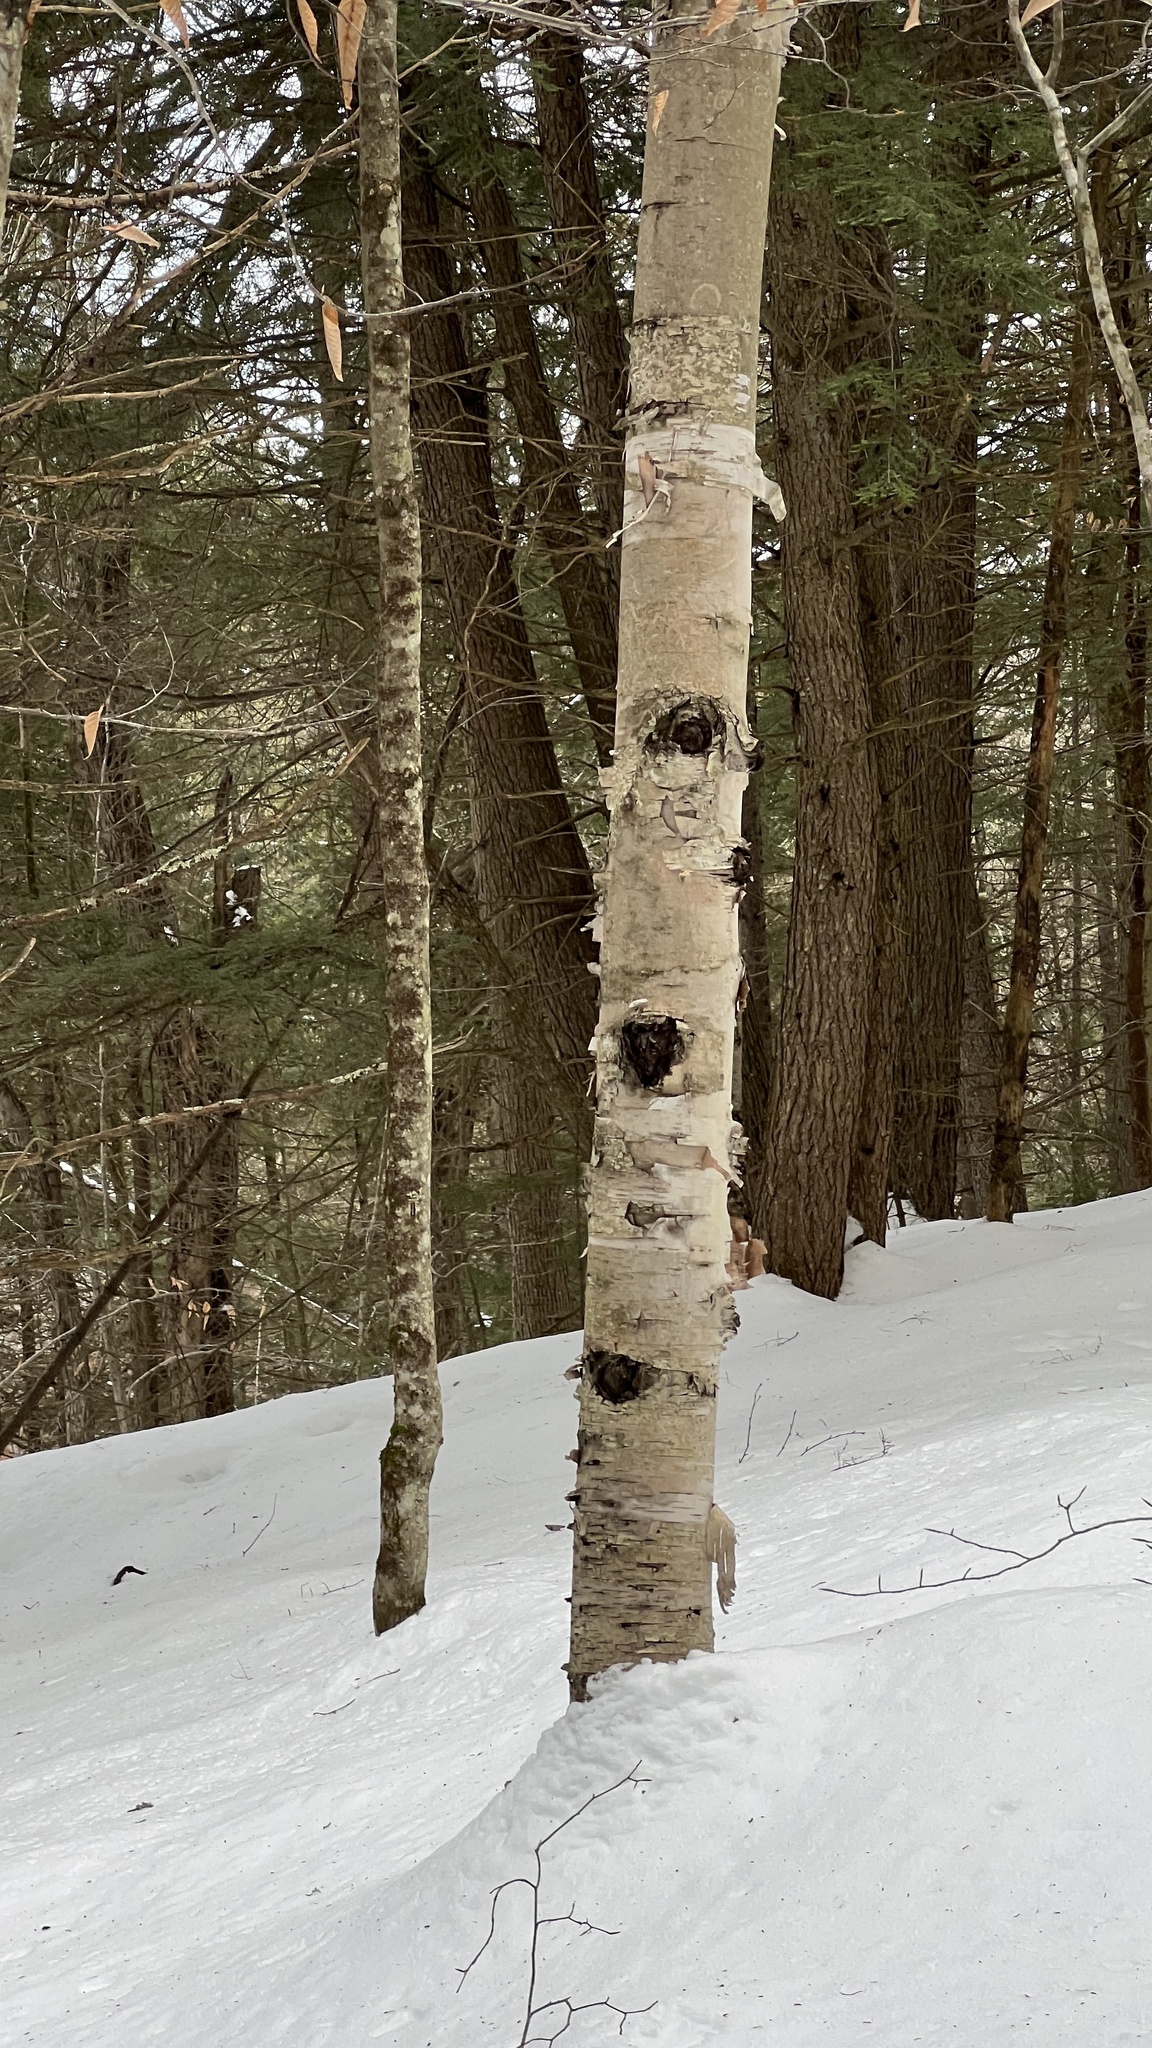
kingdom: Plantae
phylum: Tracheophyta
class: Magnoliopsida
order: Fagales
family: Betulaceae
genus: Betula
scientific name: Betula papyrifera
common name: Paper birch
